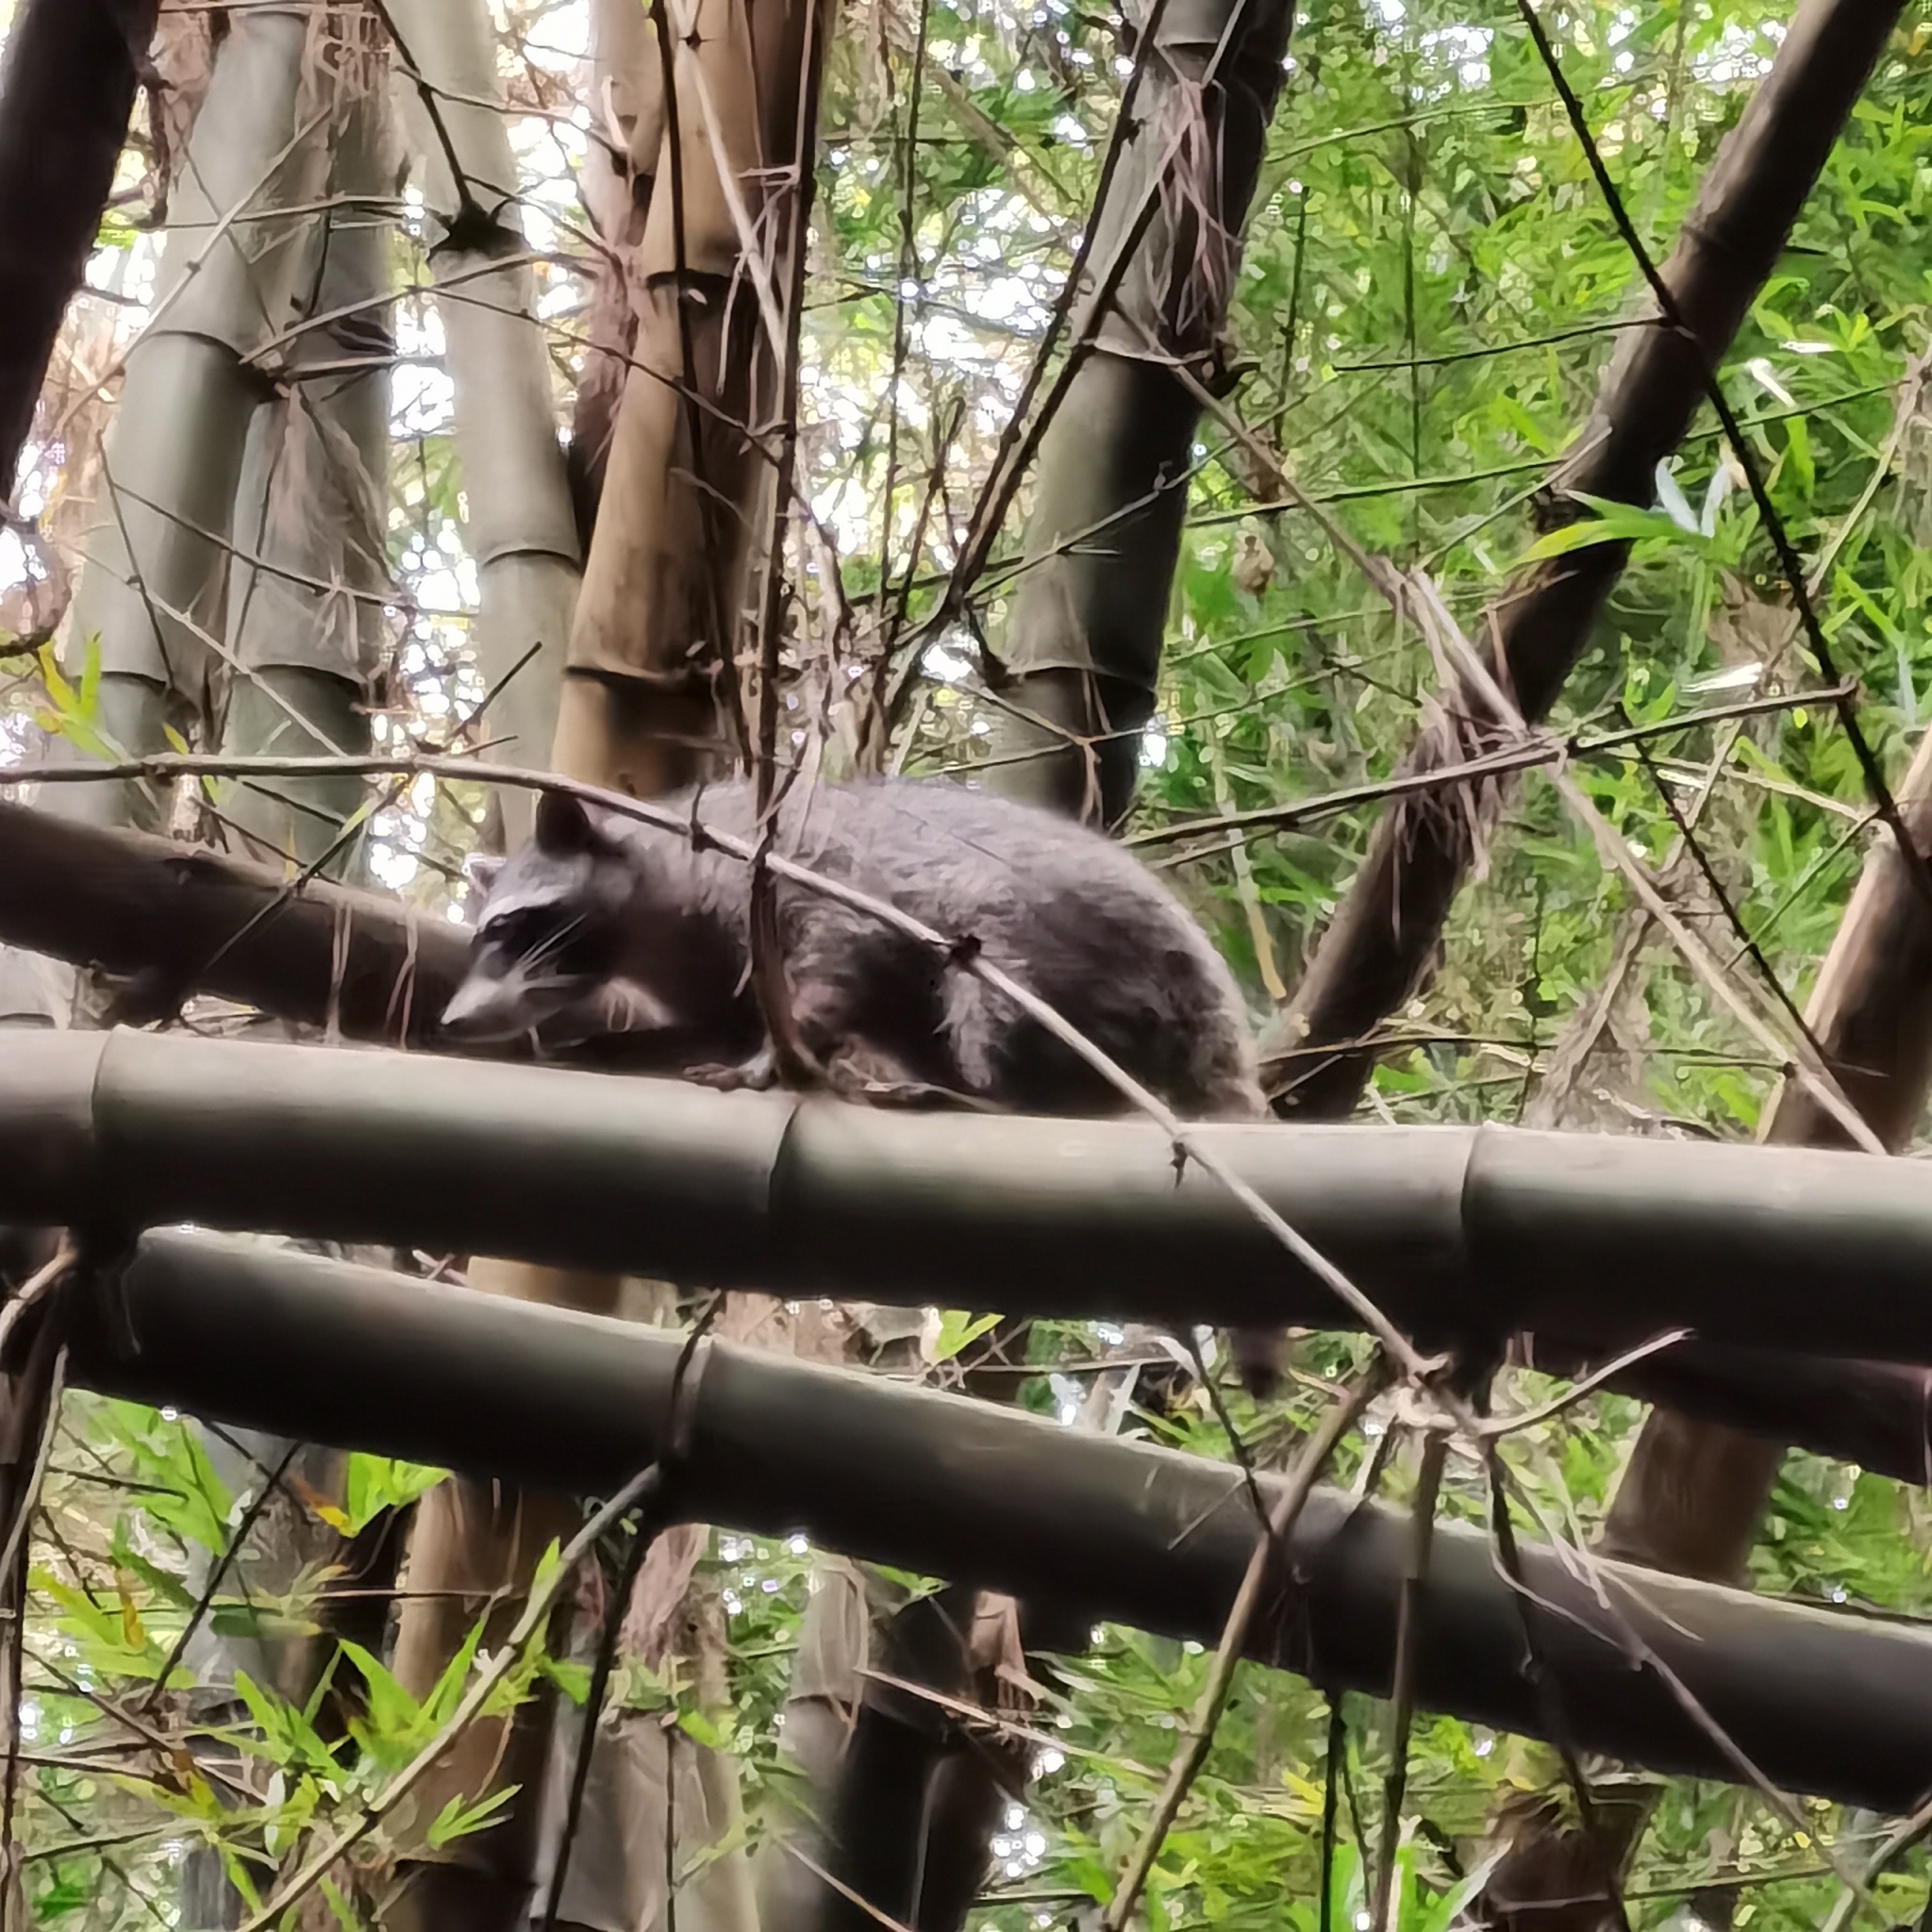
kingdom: Animalia
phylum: Chordata
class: Mammalia
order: Carnivora
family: Procyonidae
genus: Procyon
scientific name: Procyon lotor
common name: Raccoon
